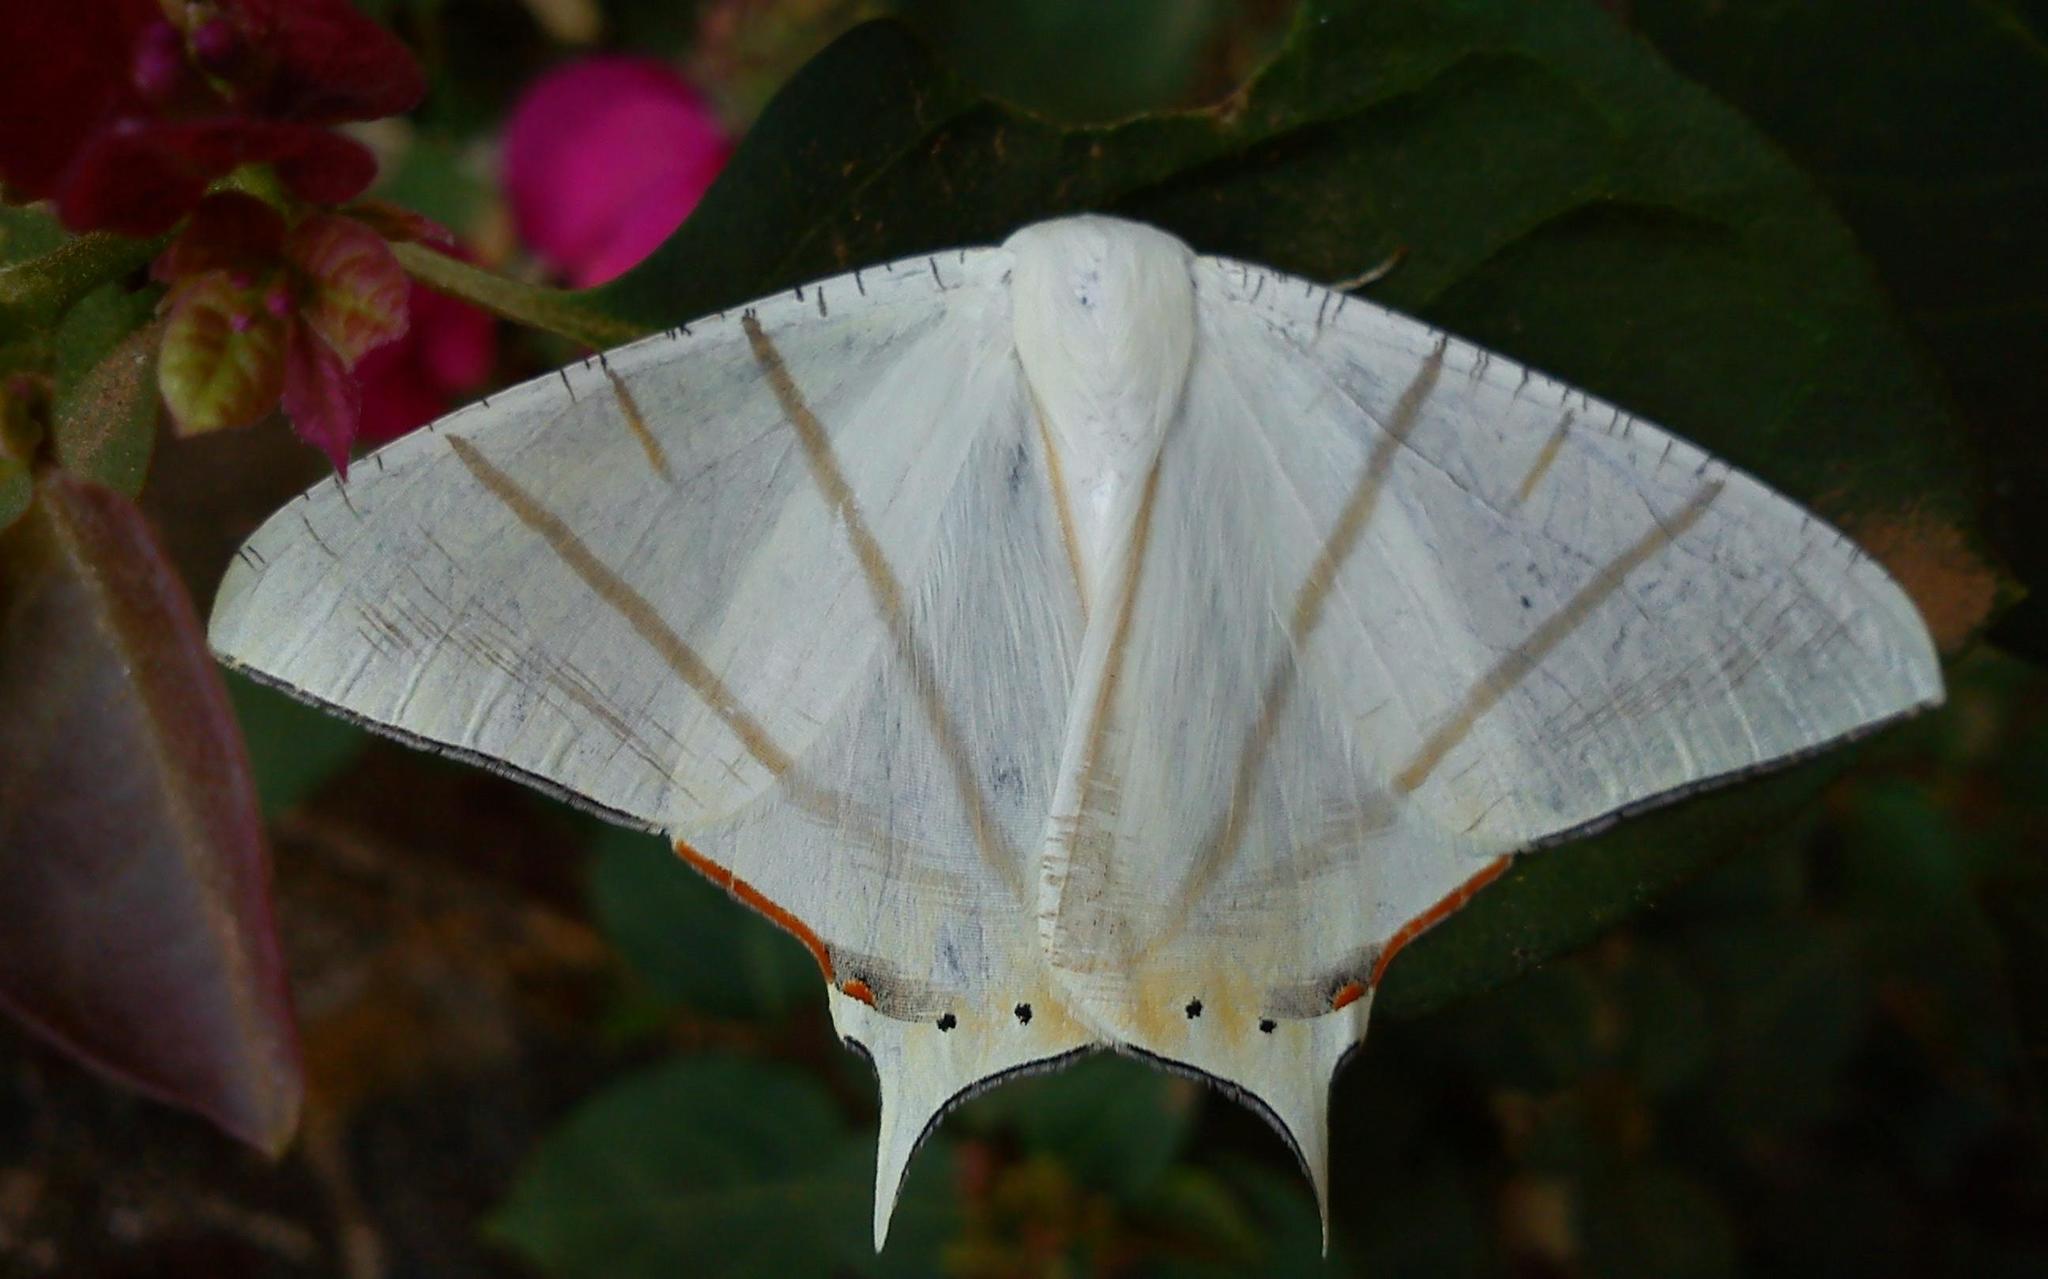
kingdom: Animalia
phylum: Arthropoda
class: Insecta
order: Lepidoptera
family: Geometridae
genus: Ourapteryx
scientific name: Ourapteryx marginata
